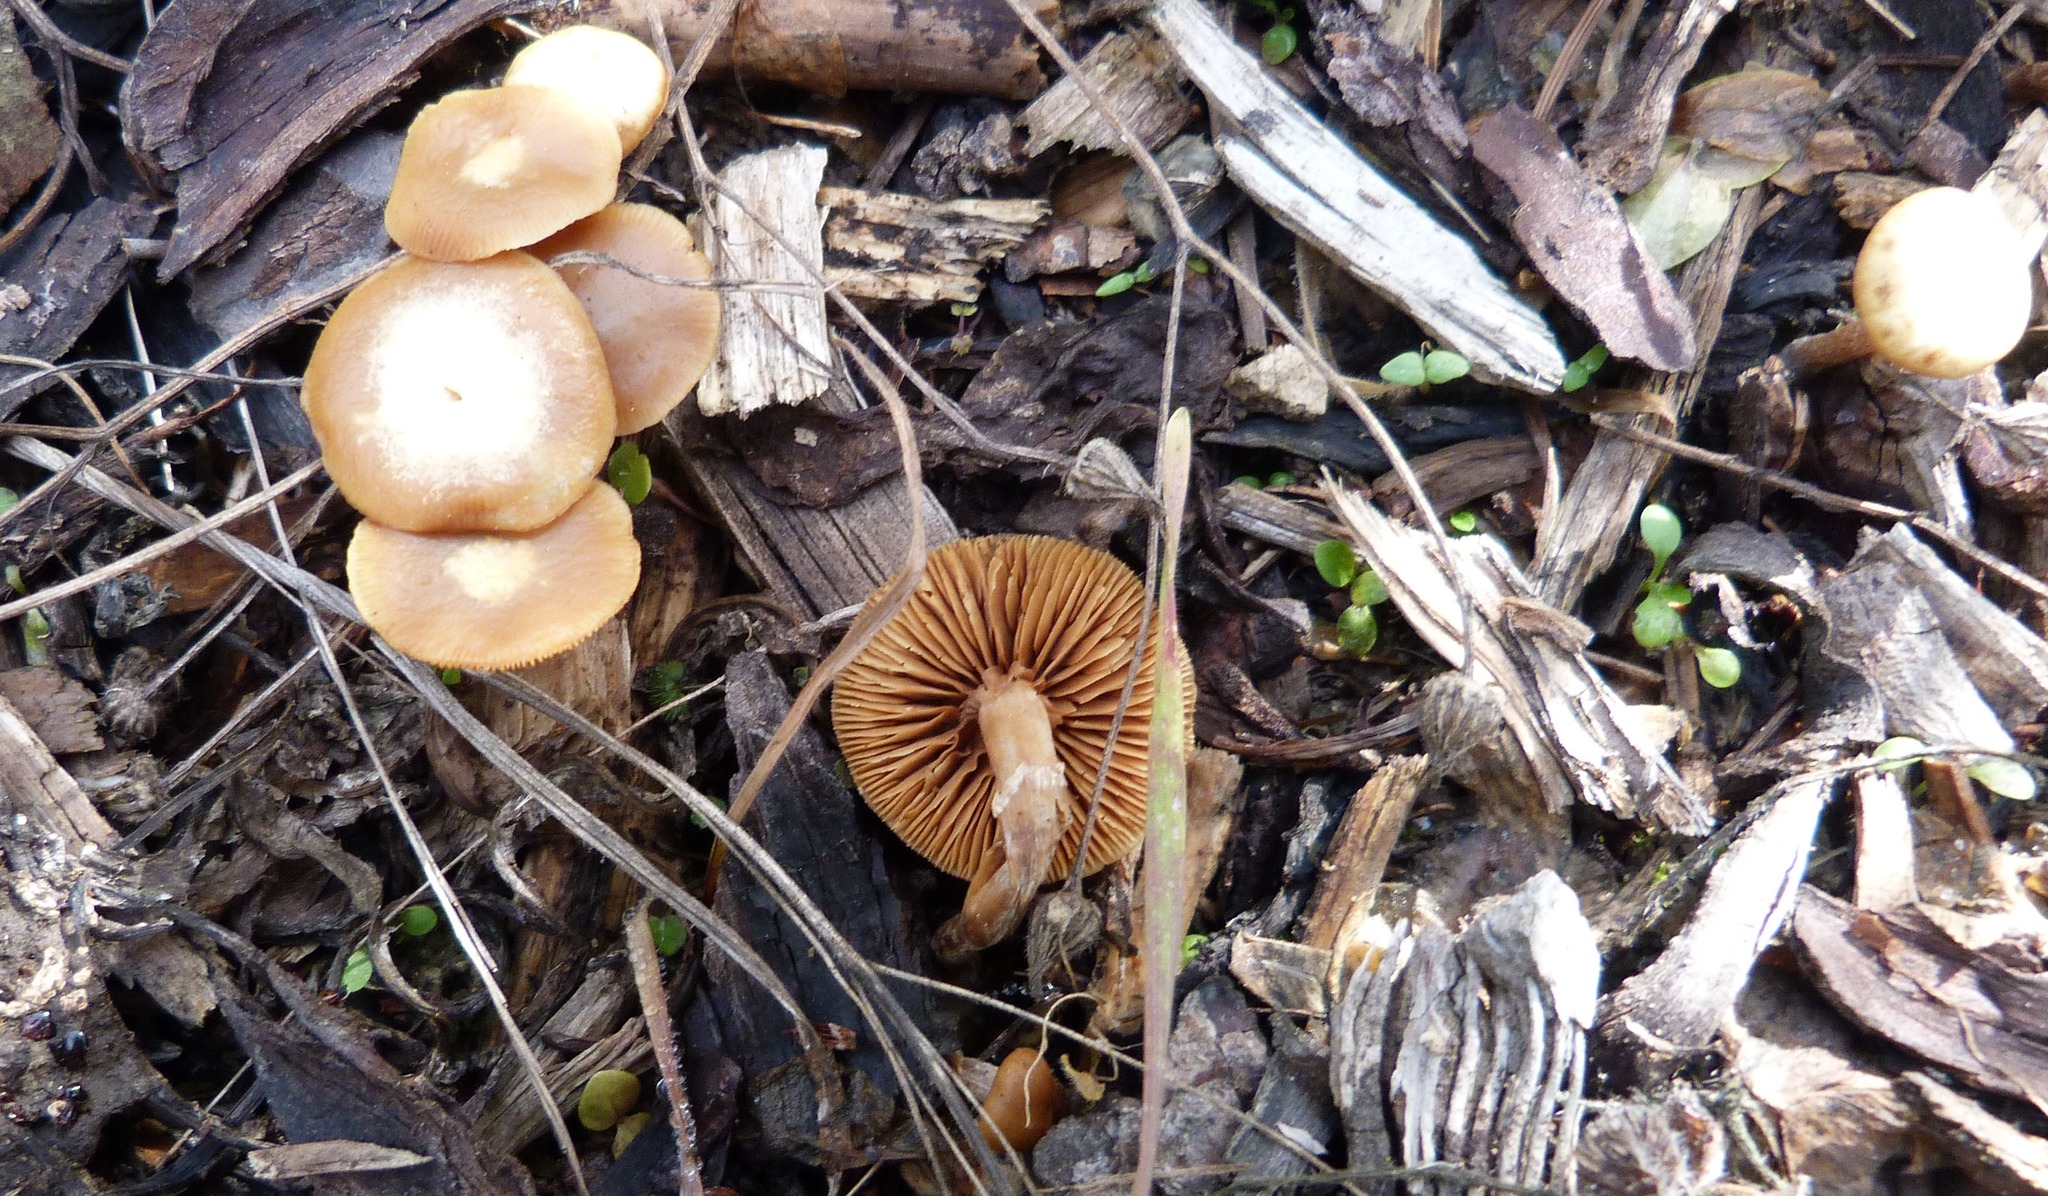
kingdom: Fungi
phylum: Basidiomycota
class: Agaricomycetes
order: Agaricales
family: Tubariaceae
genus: Tubaria
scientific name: Tubaria furfuracea
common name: Scurfy twiglet
